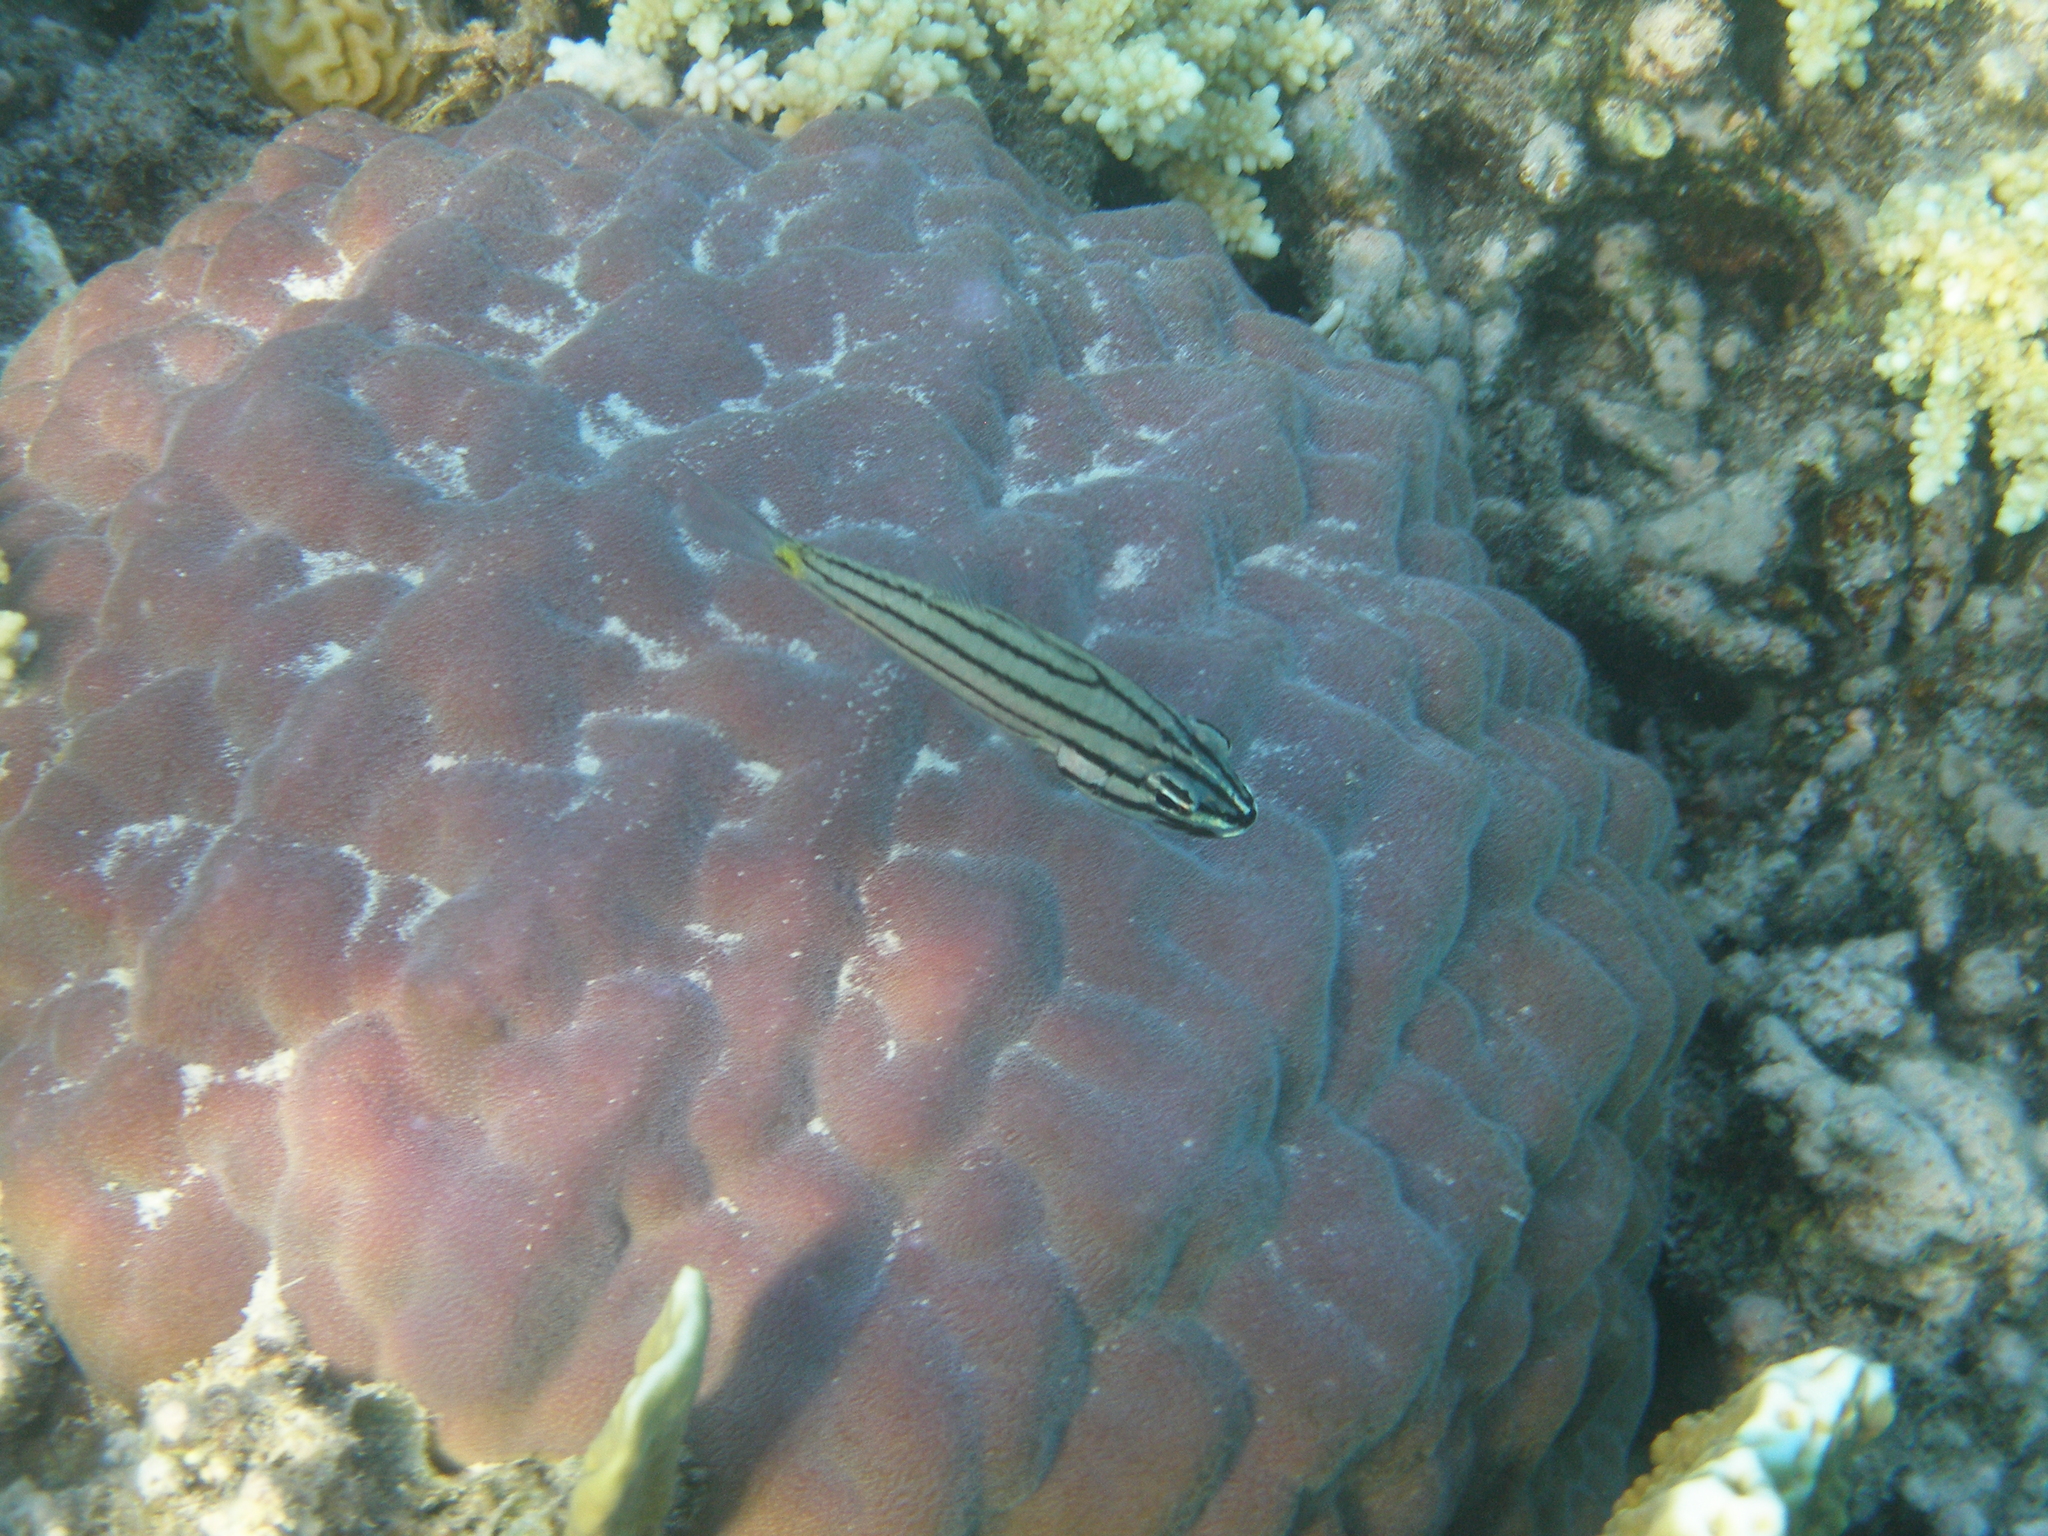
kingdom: Animalia
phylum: Chordata
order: Perciformes
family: Apogonidae
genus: Cheilodipterus
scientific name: Cheilodipterus quinquelineatus
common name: Five-lined cardinalfish
